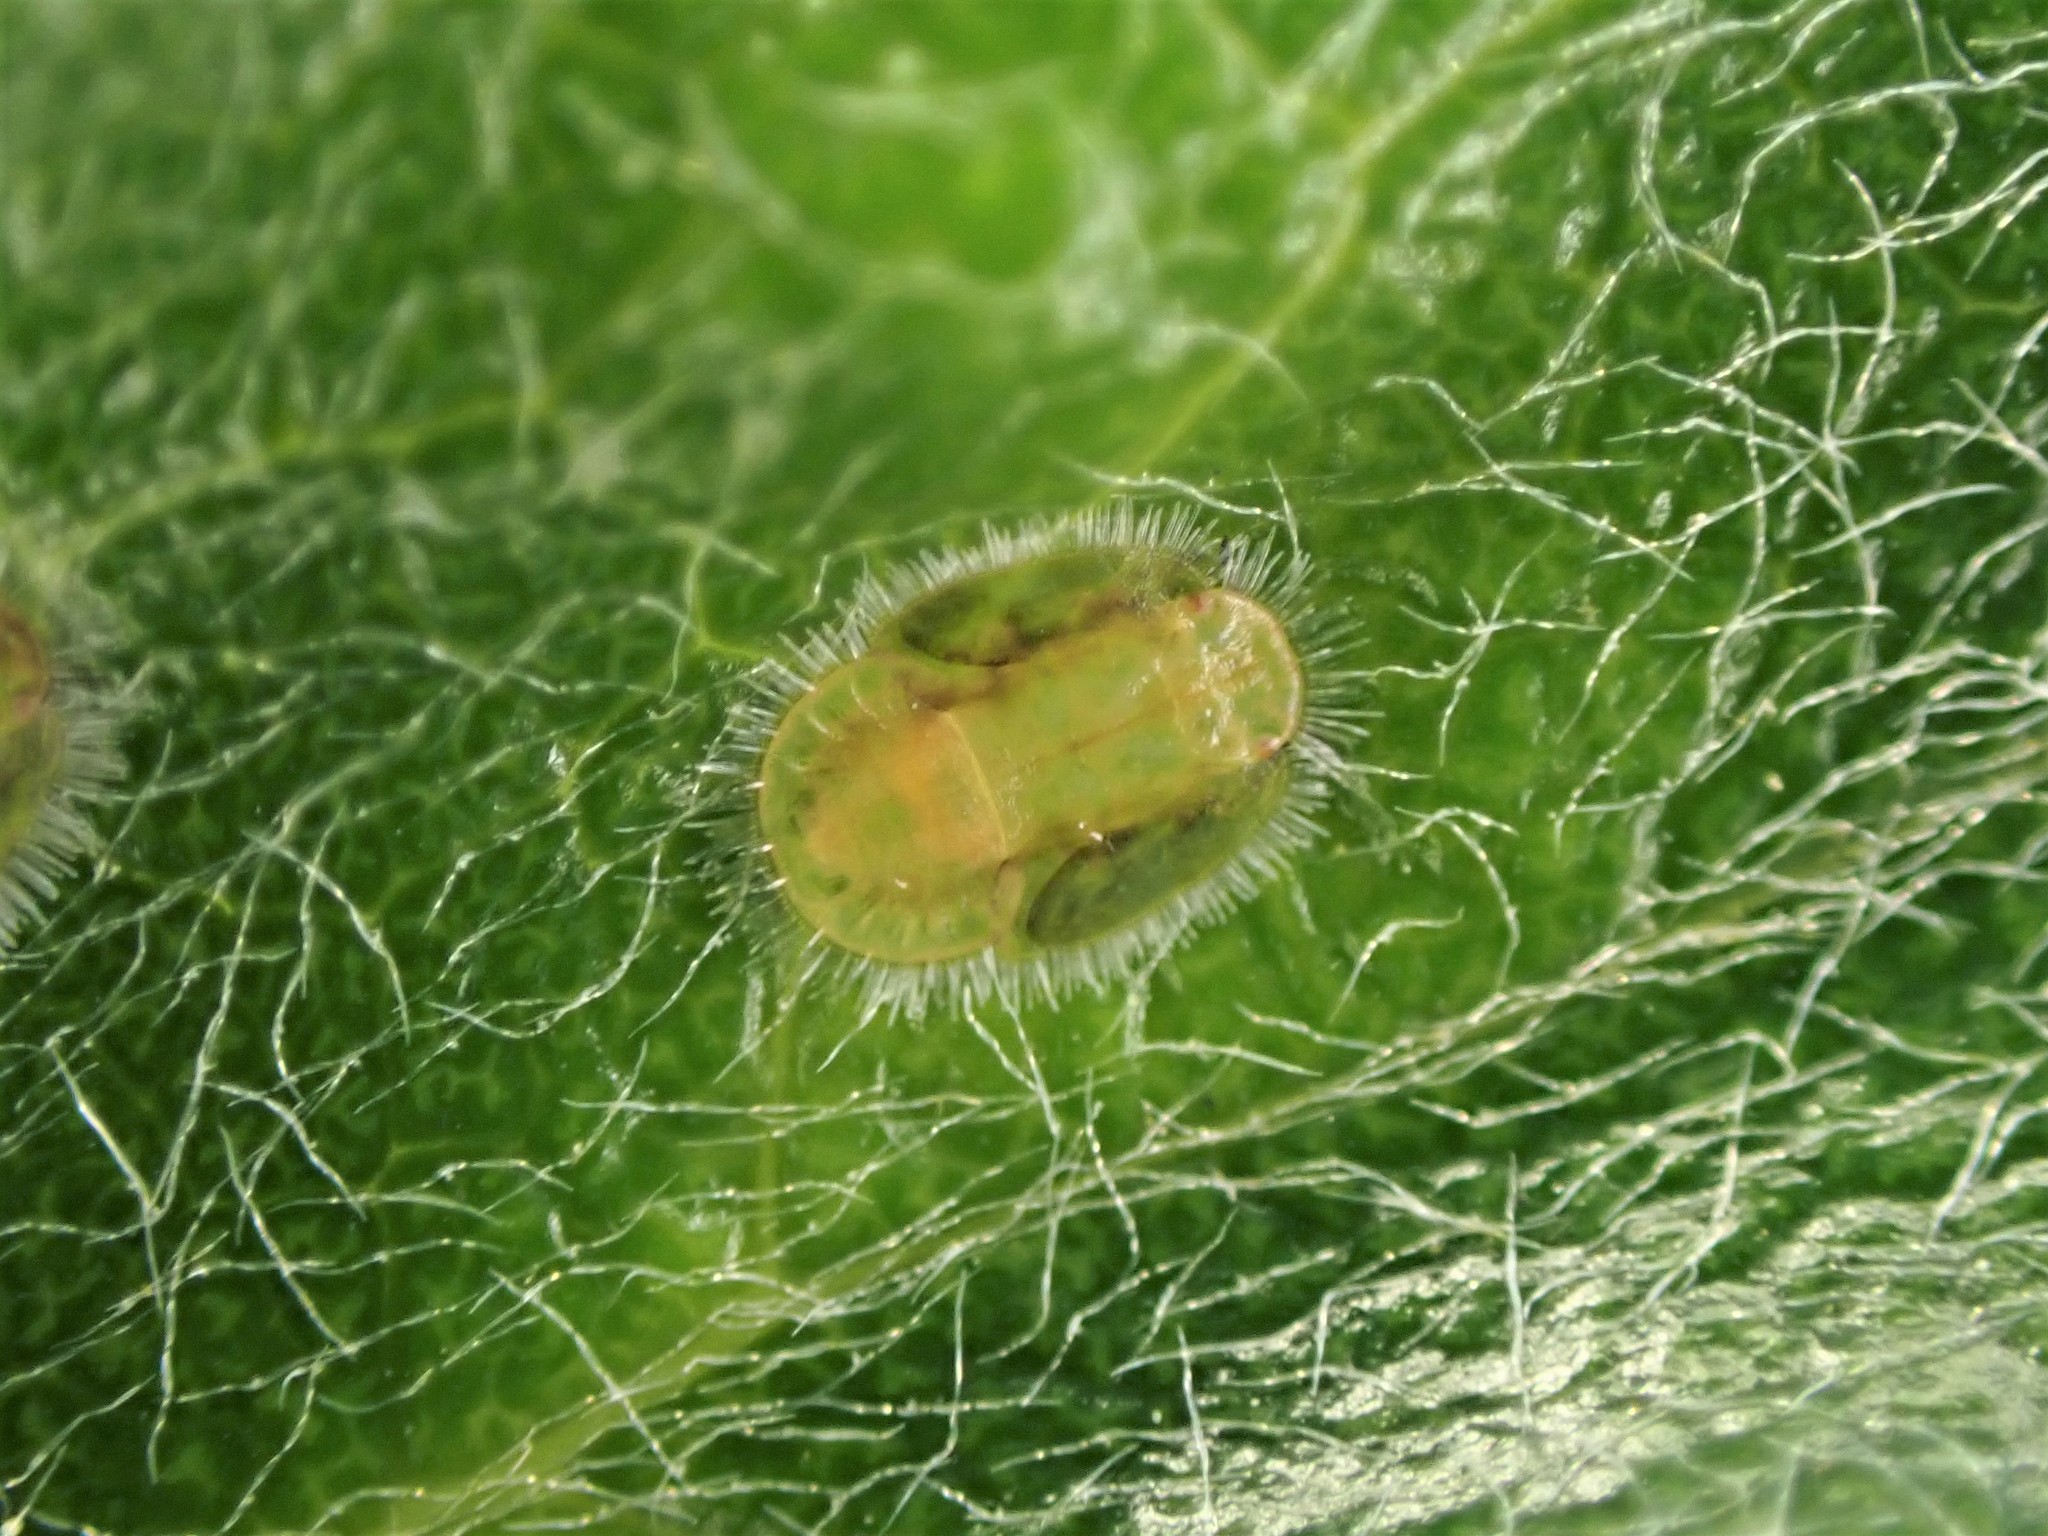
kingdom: Animalia
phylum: Arthropoda
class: Insecta
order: Hemiptera
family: Triozidae
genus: Powellia
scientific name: Powellia vitreoradiata
